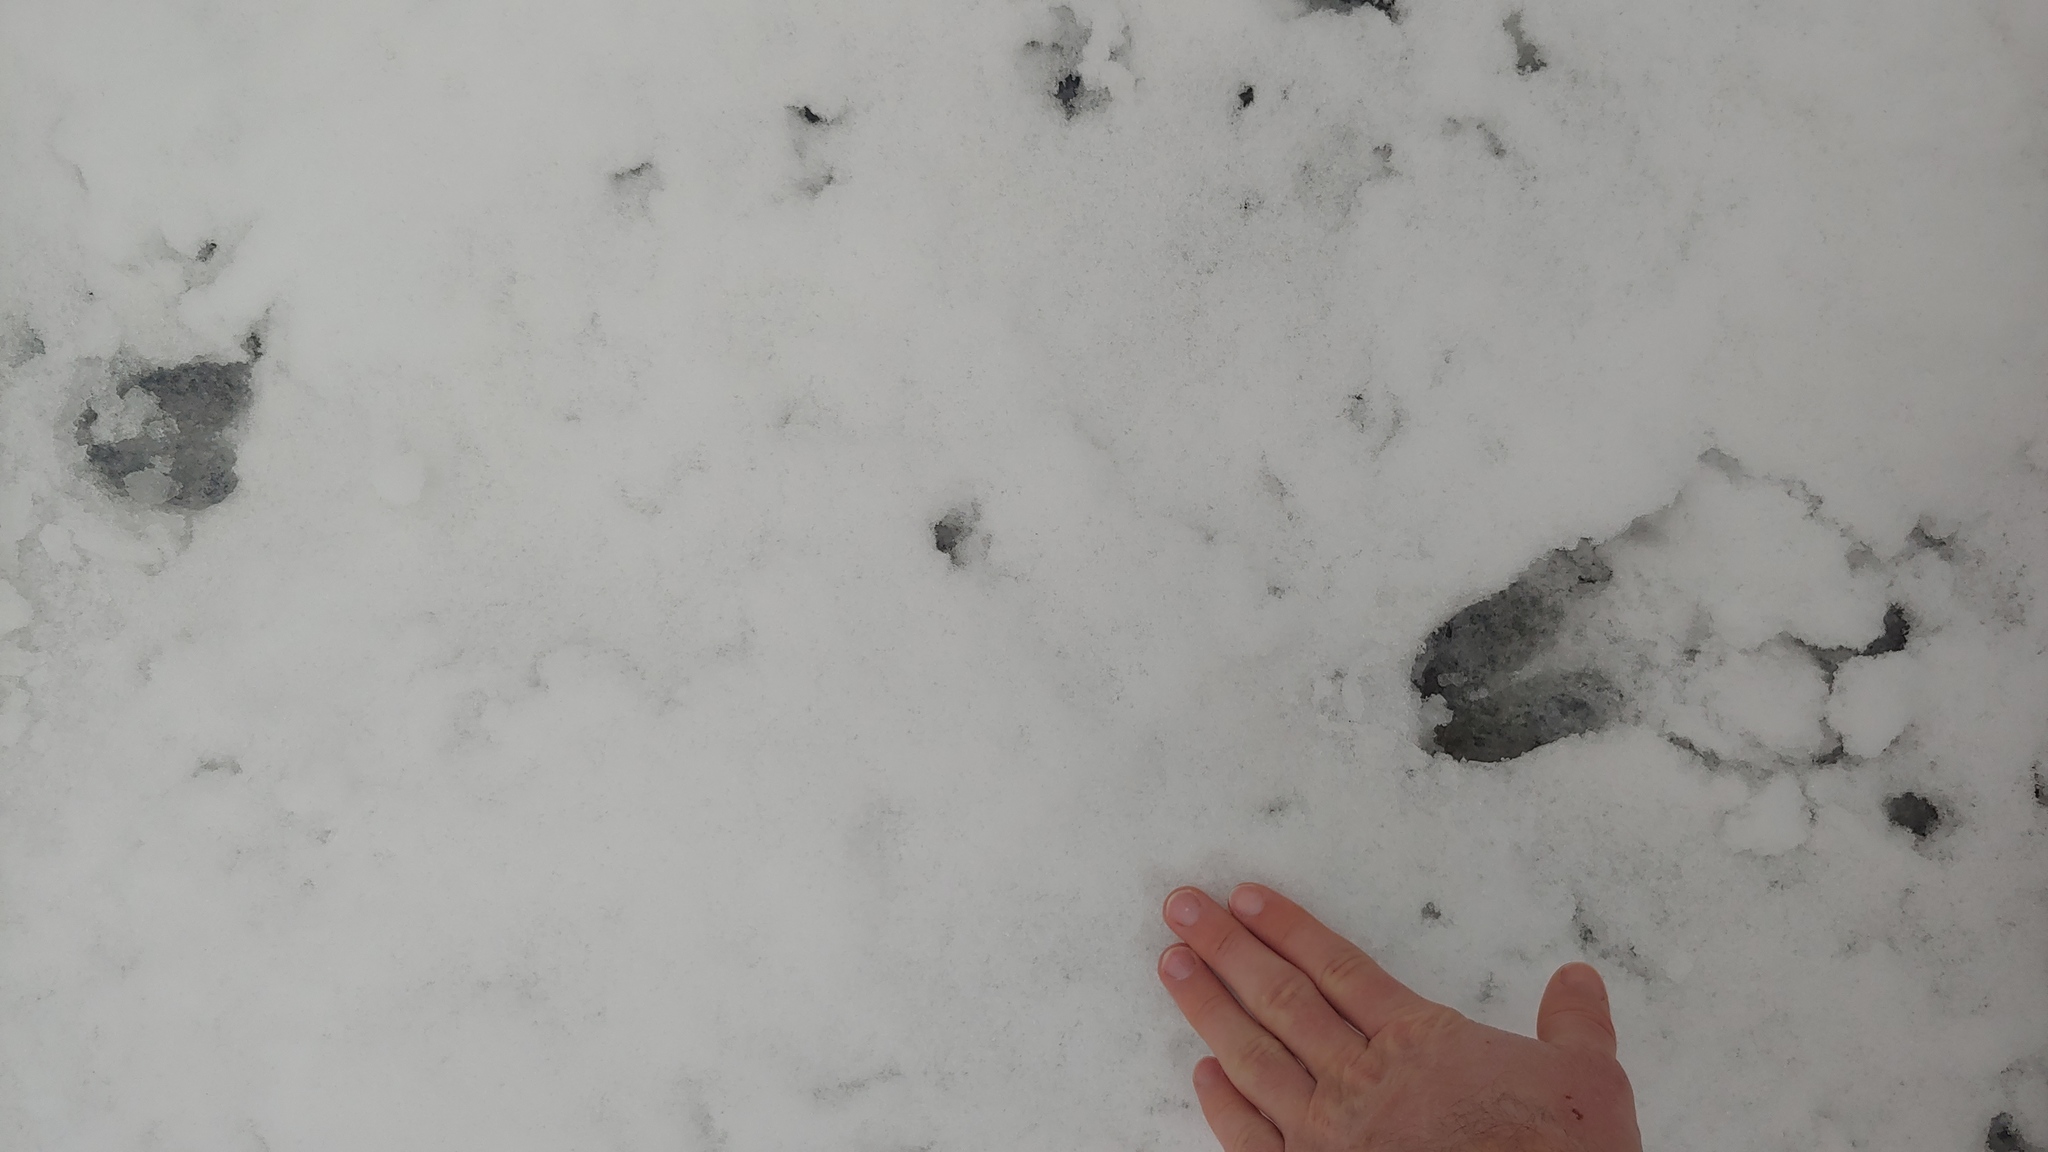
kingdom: Animalia
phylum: Chordata
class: Mammalia
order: Artiodactyla
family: Cervidae
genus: Odocoileus
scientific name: Odocoileus virginianus
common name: White-tailed deer
